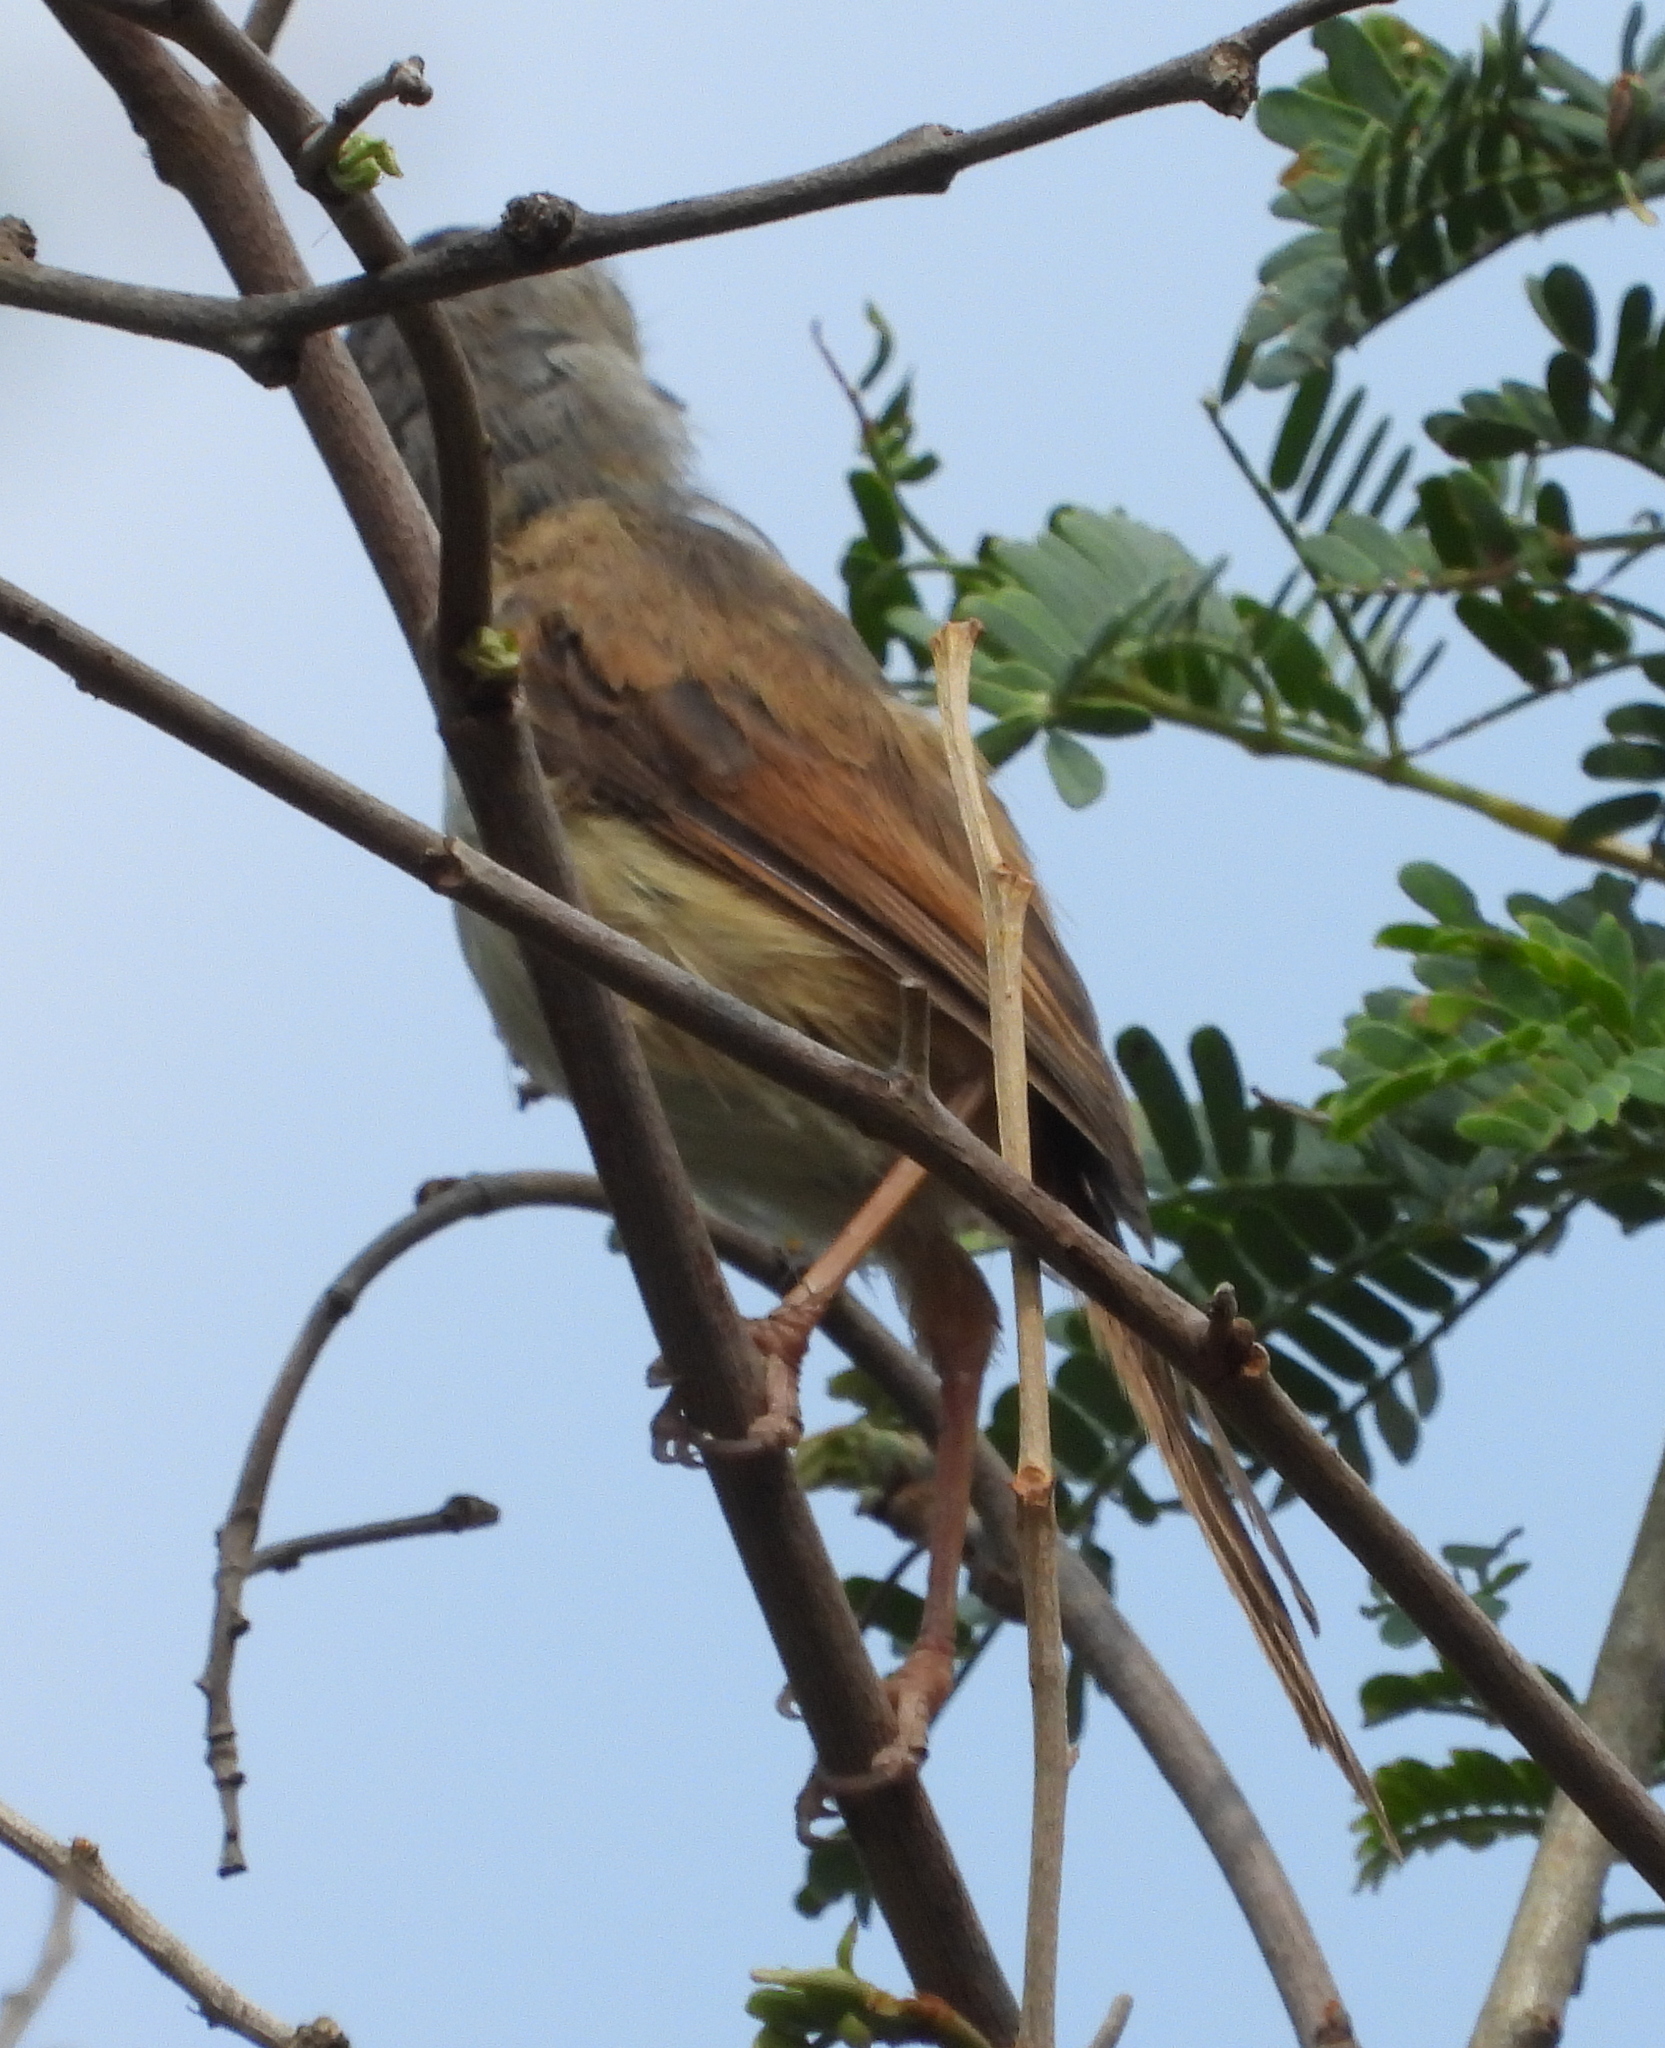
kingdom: Animalia
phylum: Chordata
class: Aves
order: Passeriformes
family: Cisticolidae
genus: Prinia
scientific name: Prinia subflava
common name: Tawny-flanked prinia
